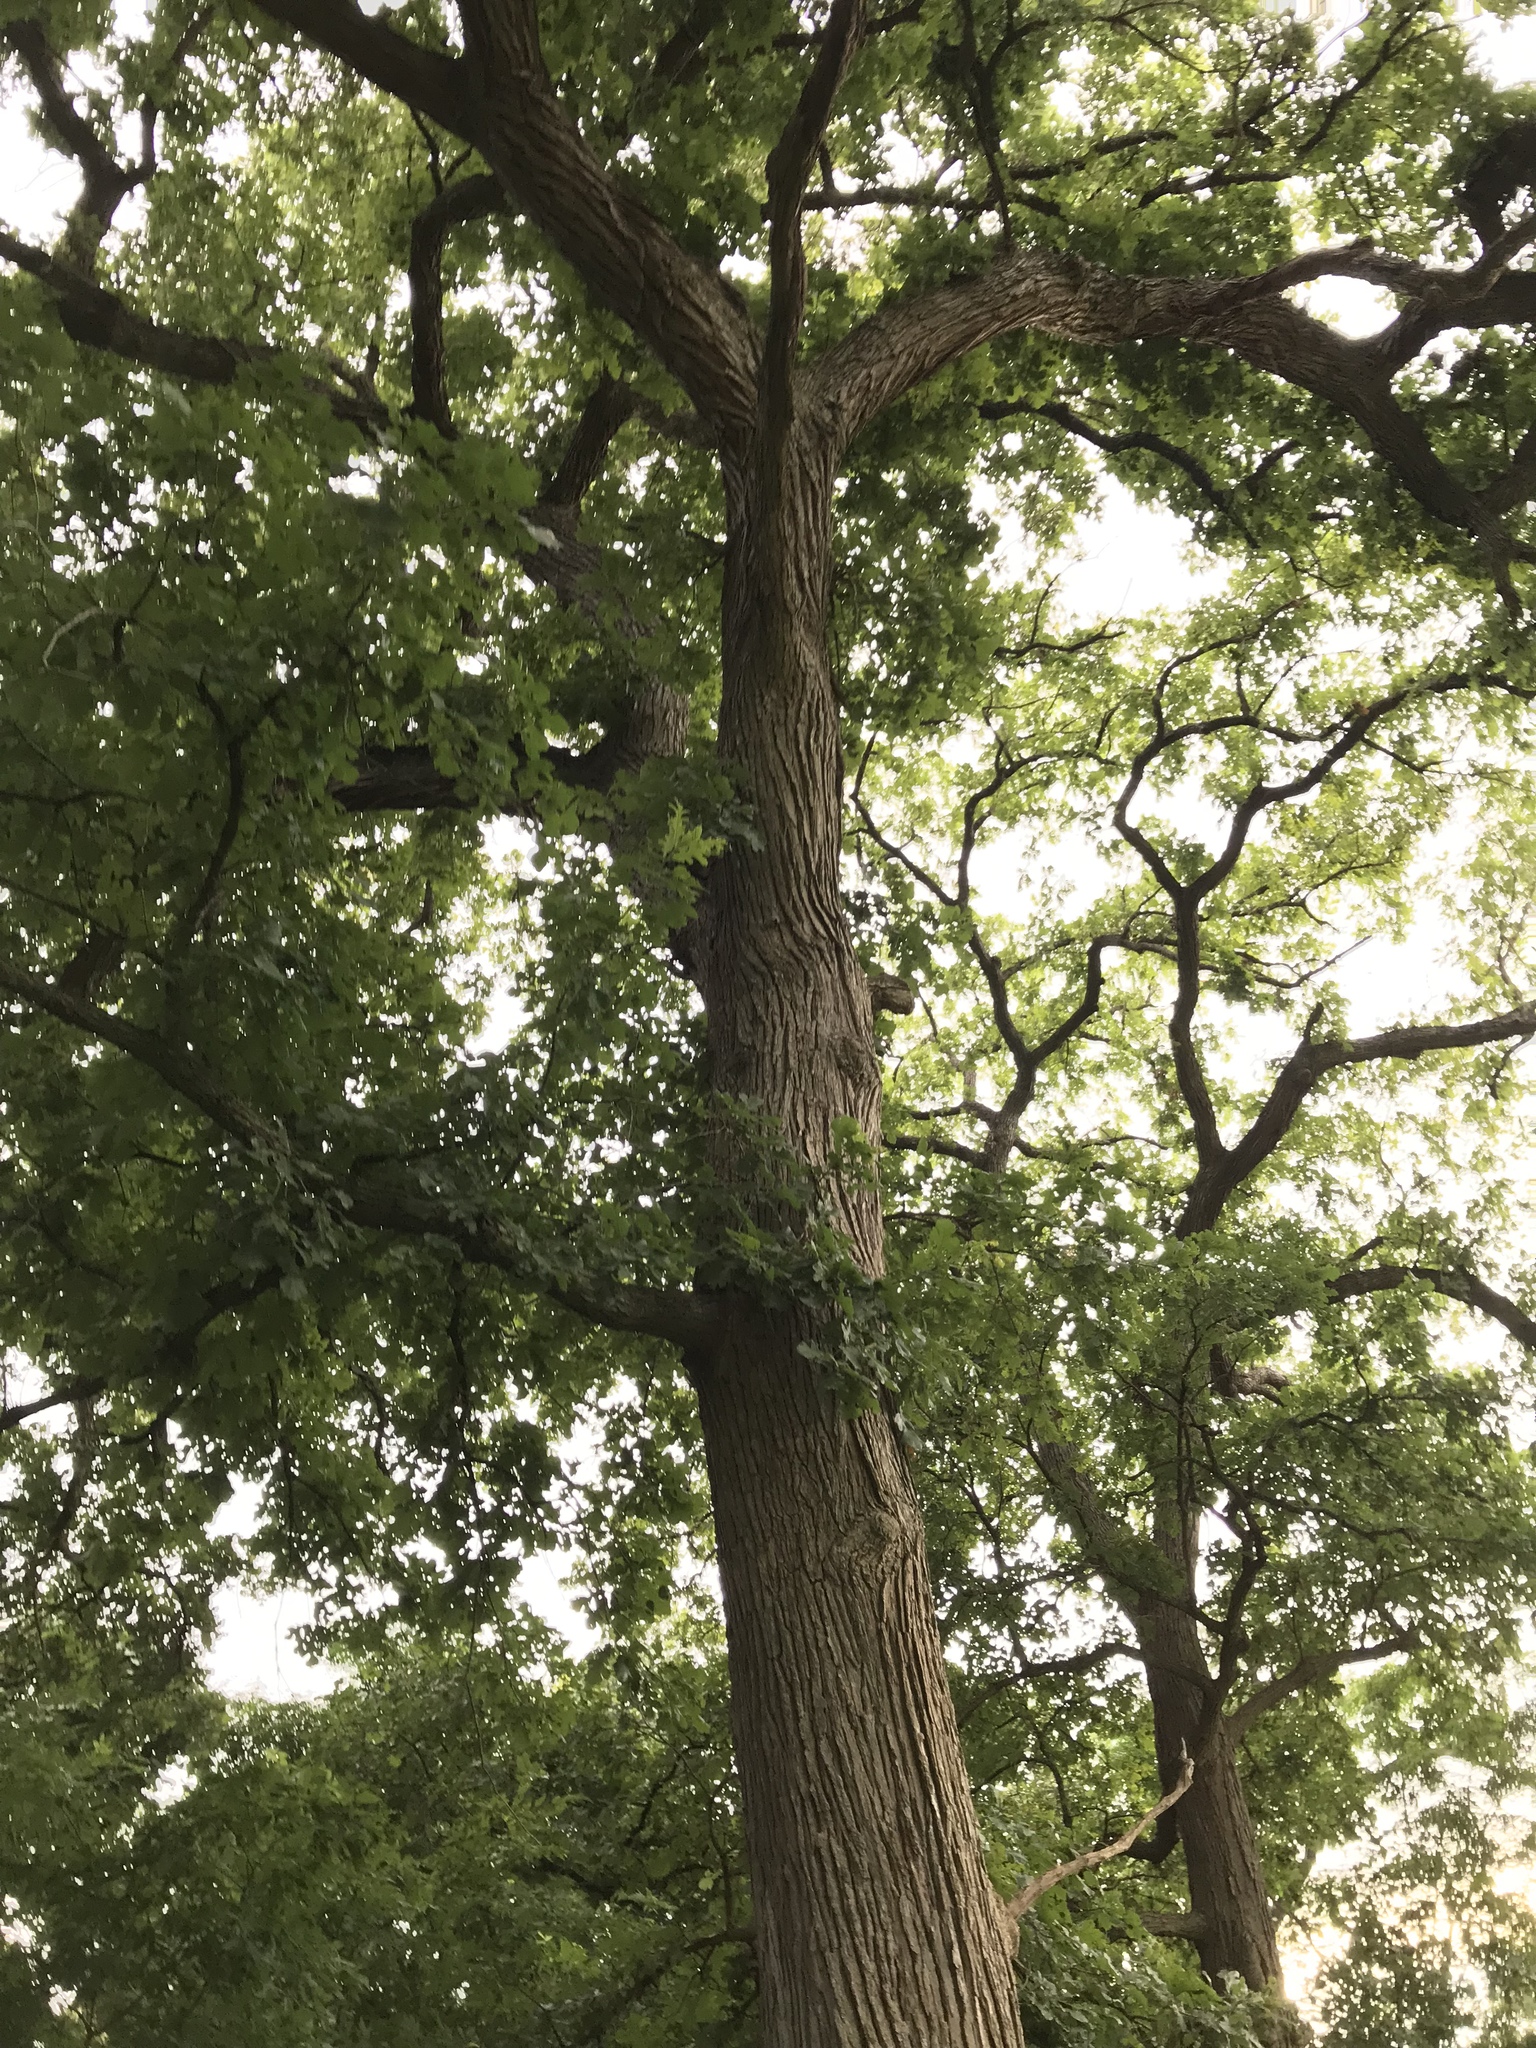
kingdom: Plantae
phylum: Tracheophyta
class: Magnoliopsida
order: Fagales
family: Fagaceae
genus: Quercus
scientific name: Quercus macrocarpa
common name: Bur oak
